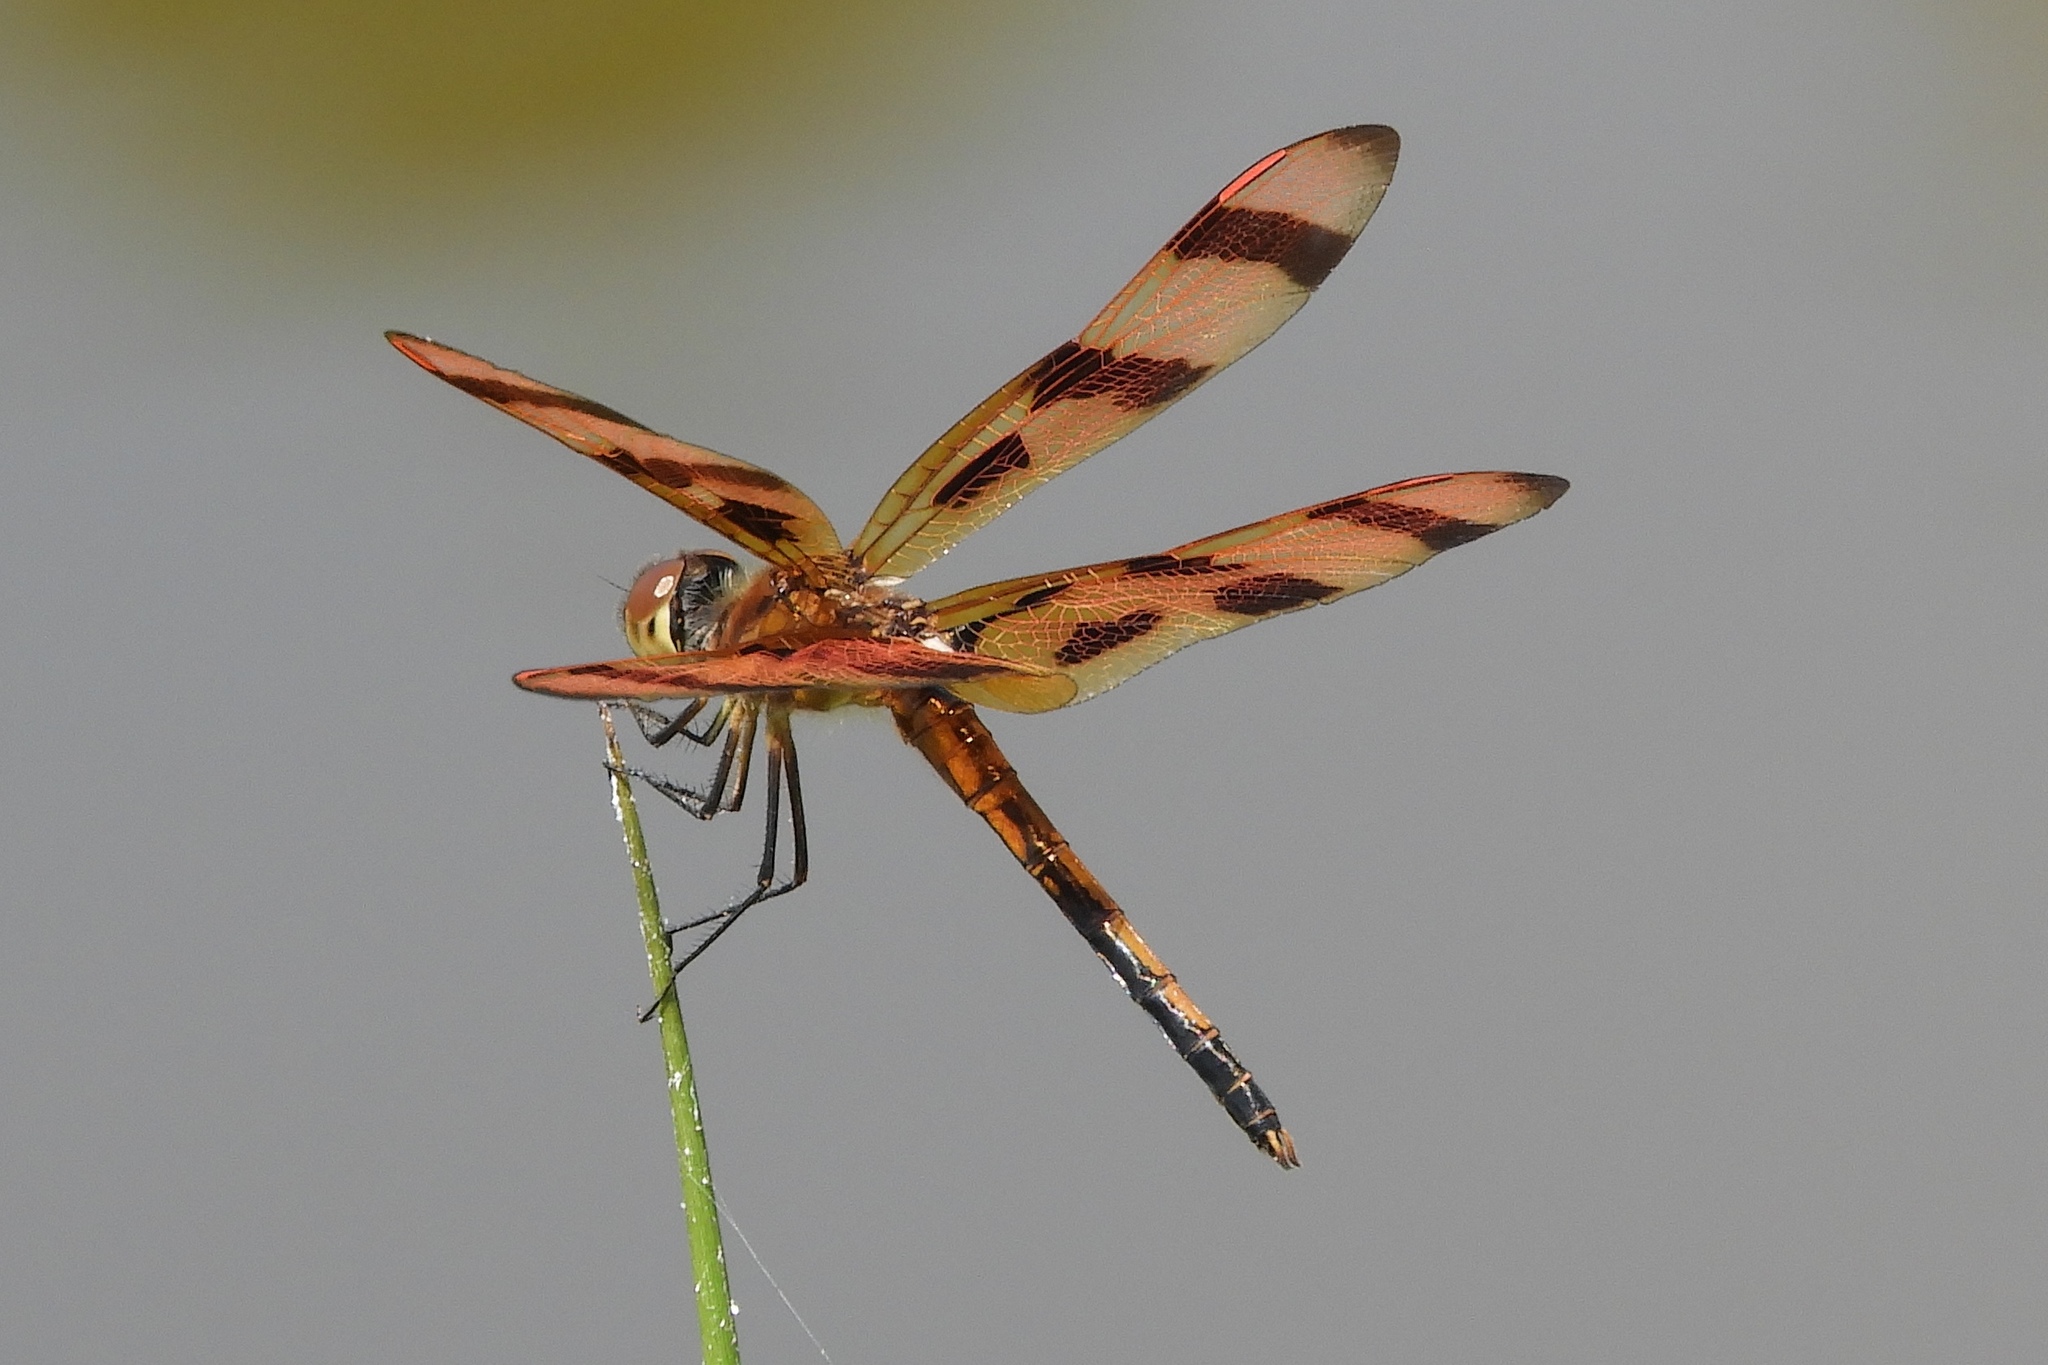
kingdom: Animalia
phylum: Arthropoda
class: Insecta
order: Odonata
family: Libellulidae
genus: Celithemis
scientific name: Celithemis eponina
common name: Halloween pennant
